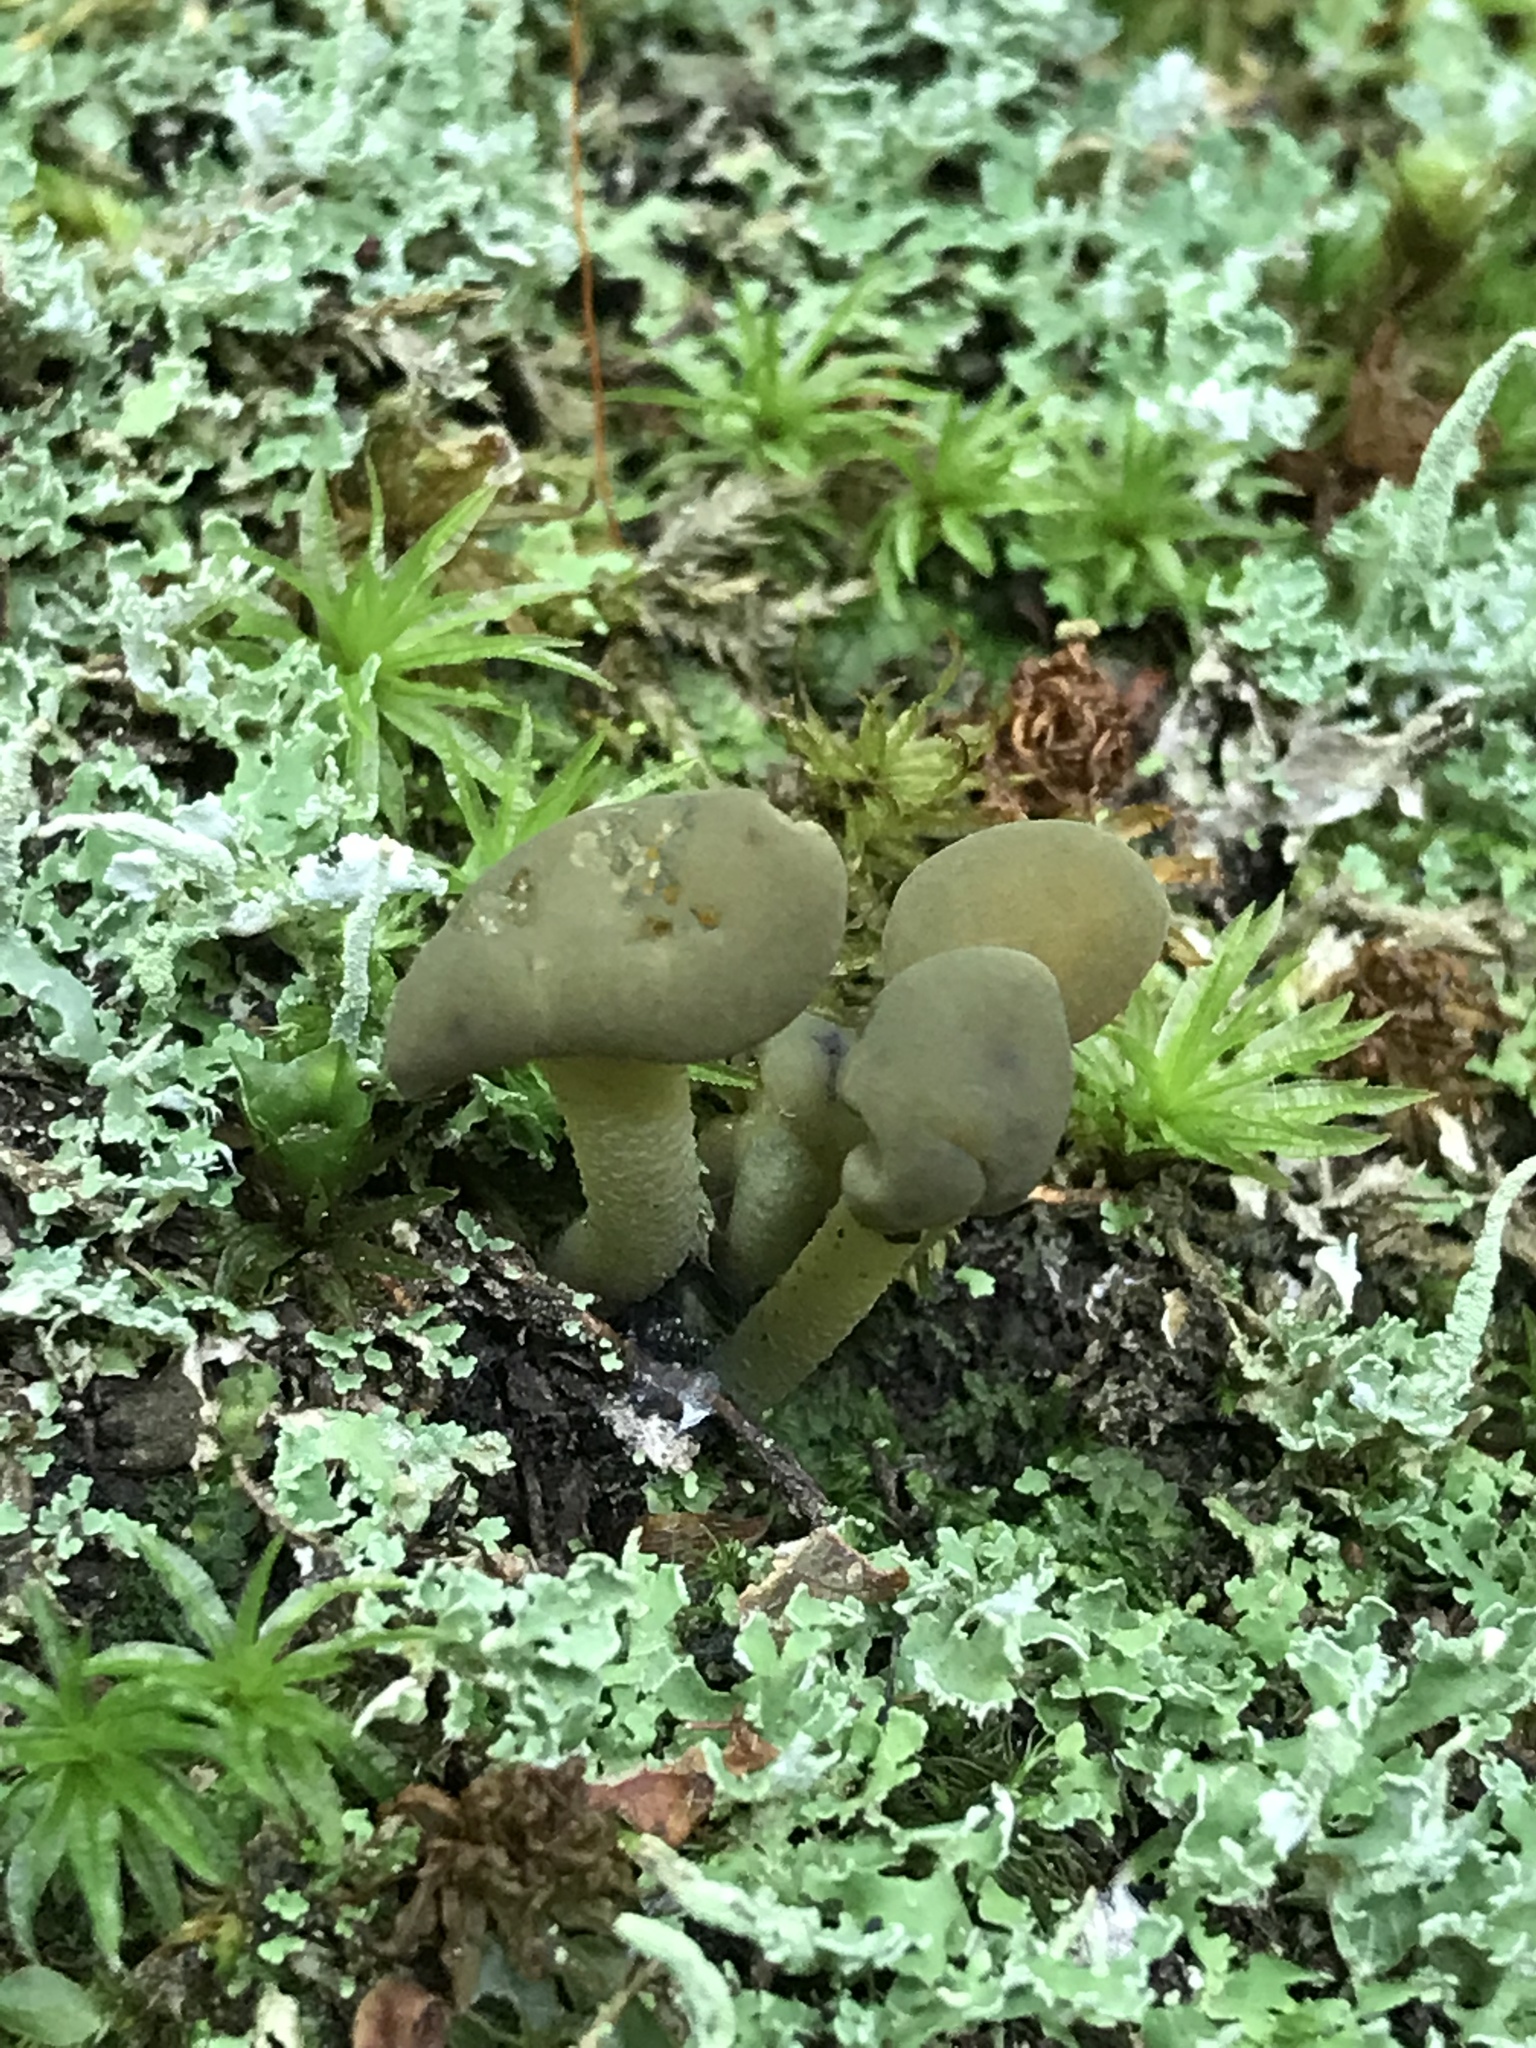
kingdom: Fungi
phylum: Ascomycota
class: Leotiomycetes
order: Leotiales
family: Leotiaceae
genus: Leotia
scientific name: Leotia lubrica
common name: Jellybaby
